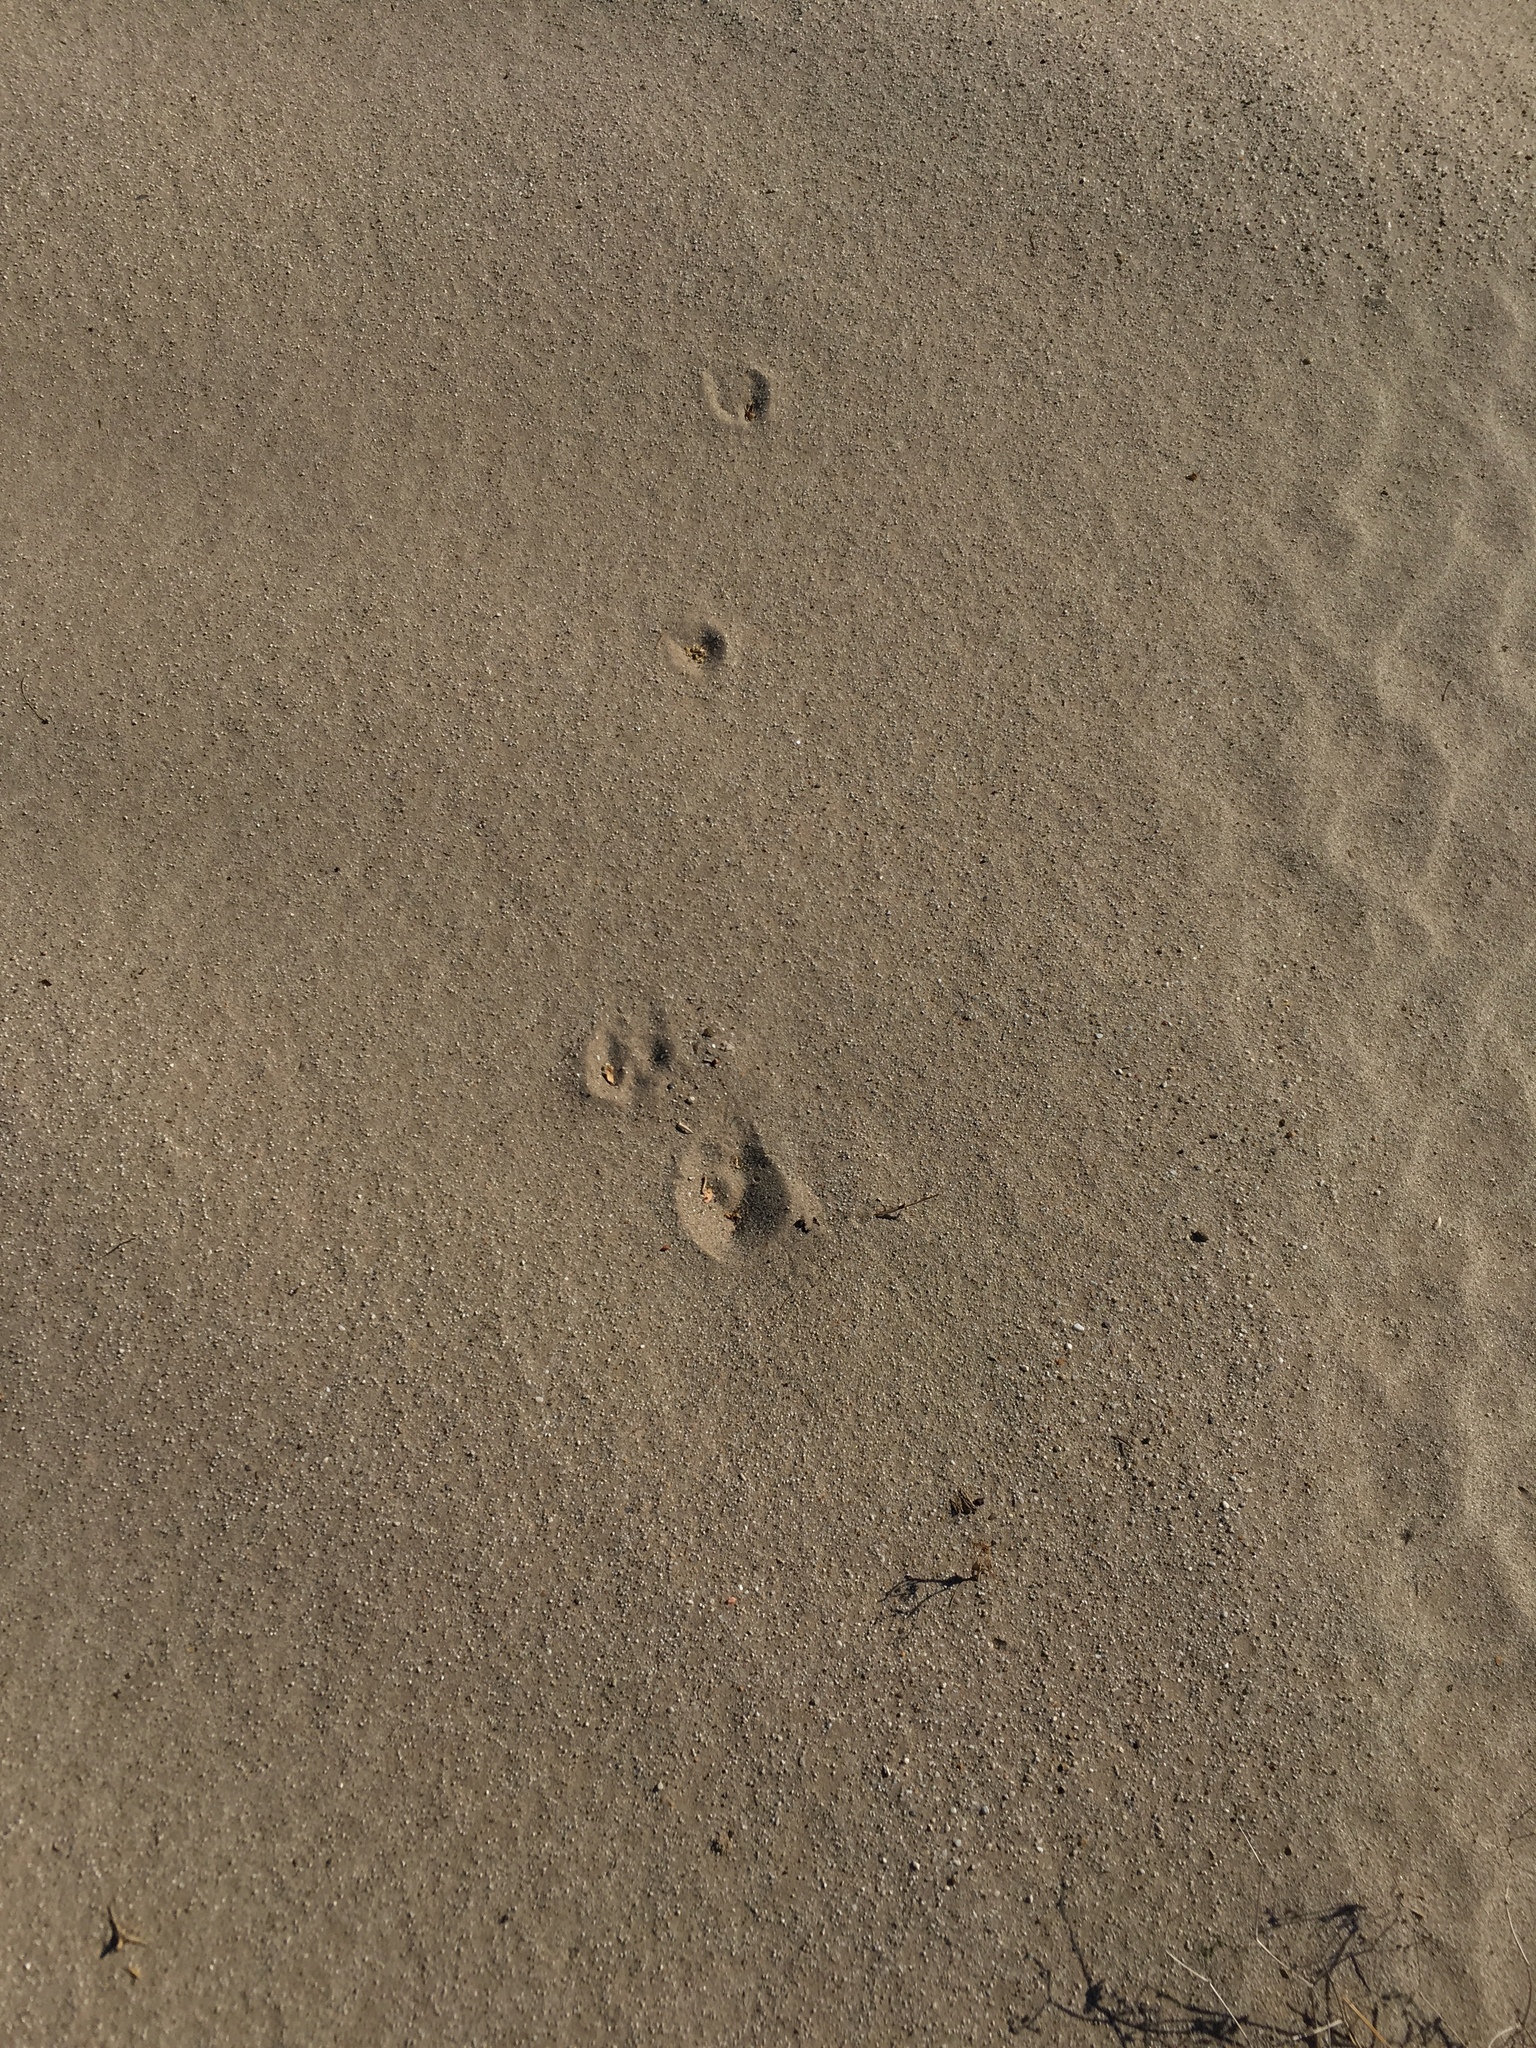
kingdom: Animalia
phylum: Chordata
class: Mammalia
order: Lagomorpha
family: Leporidae
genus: Lepus
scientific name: Lepus californicus
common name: Black-tailed jackrabbit
